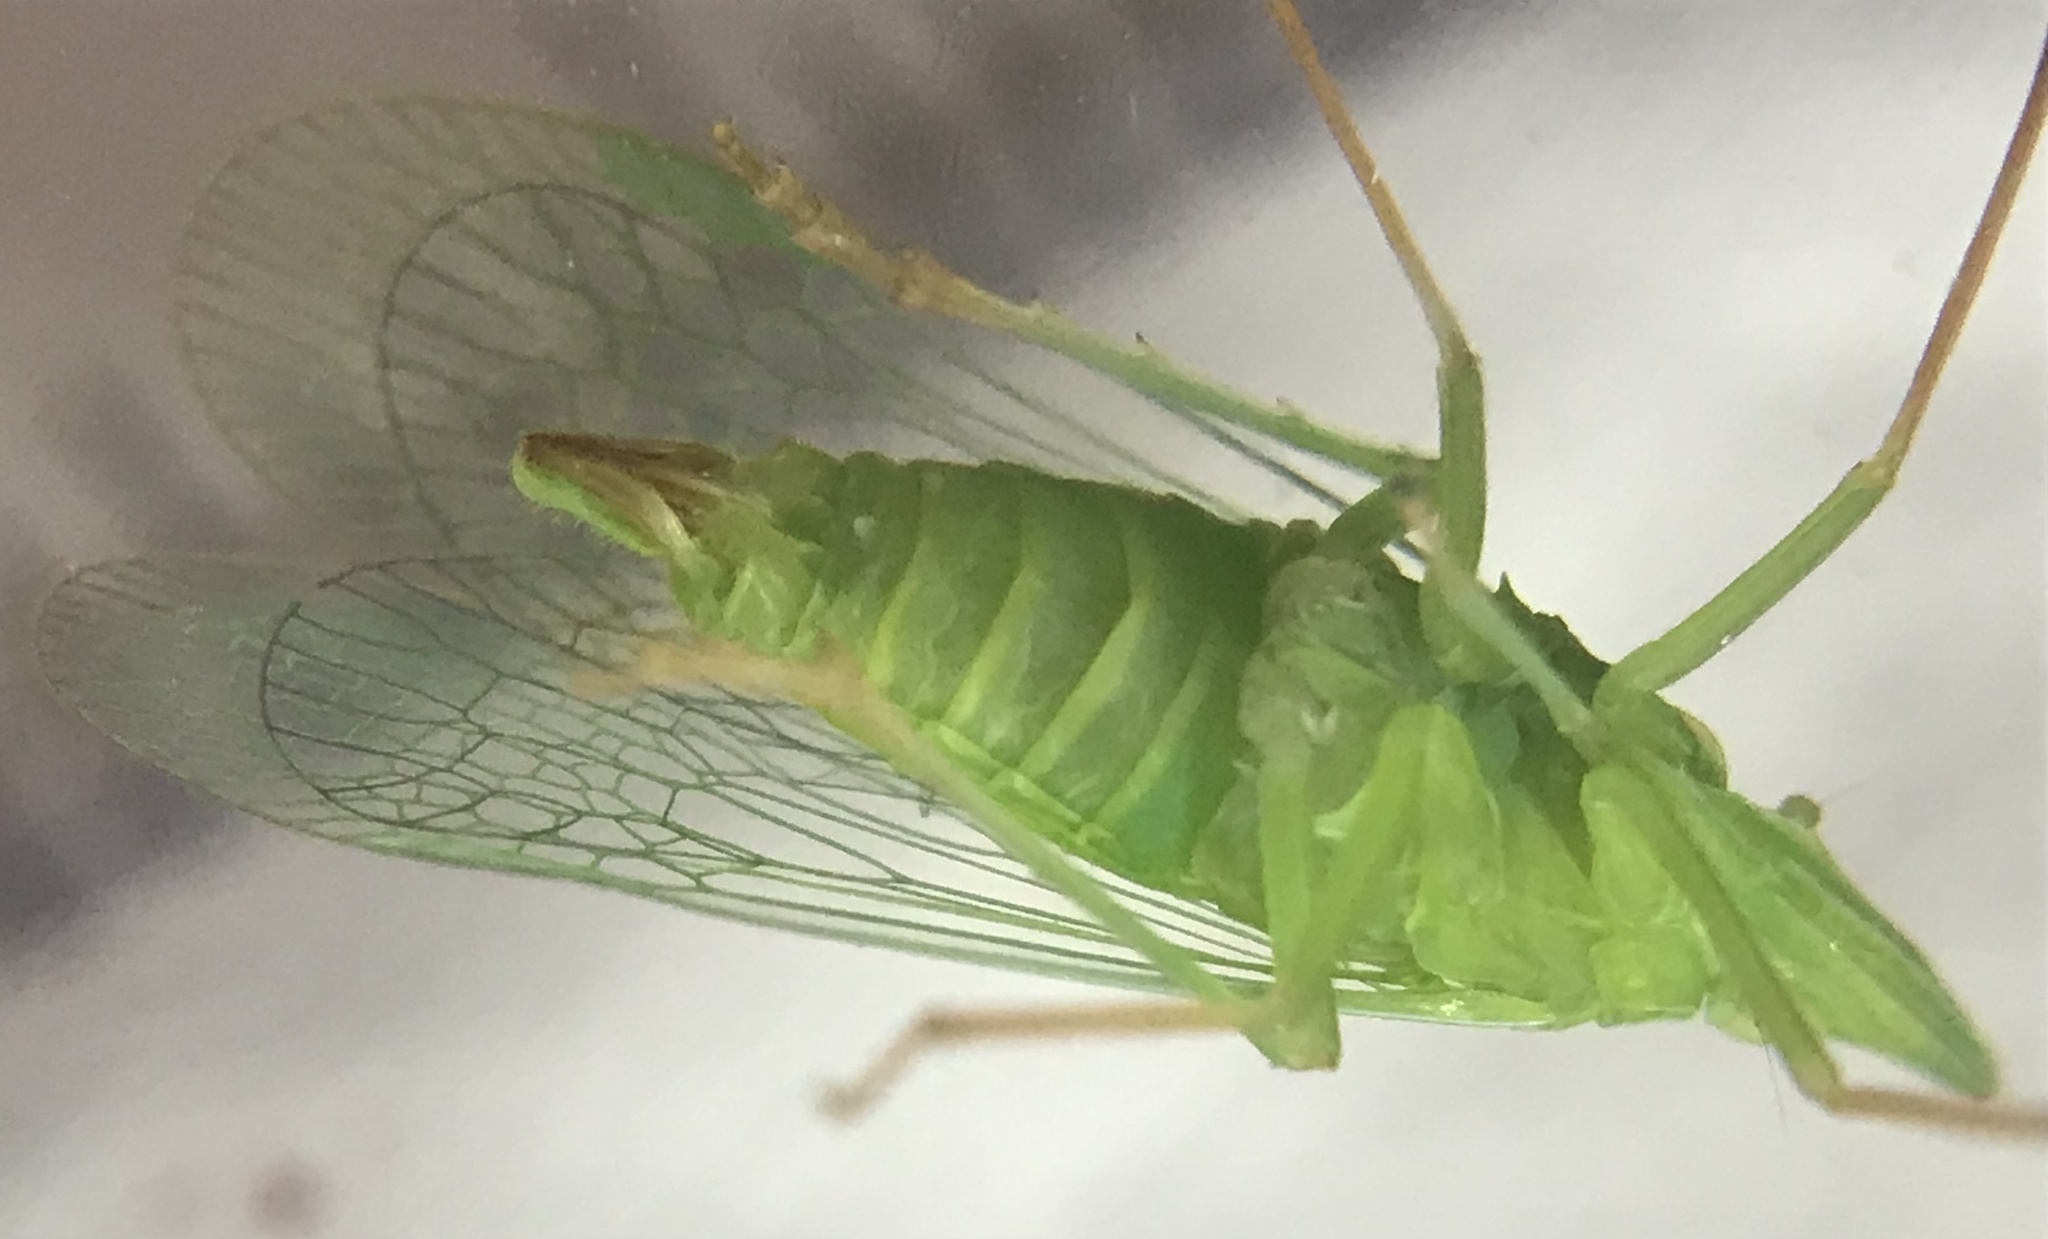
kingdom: Animalia
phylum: Arthropoda
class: Insecta
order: Hemiptera
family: Dictyopharidae
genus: Rhynchomitra
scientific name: Rhynchomitra microrhina
